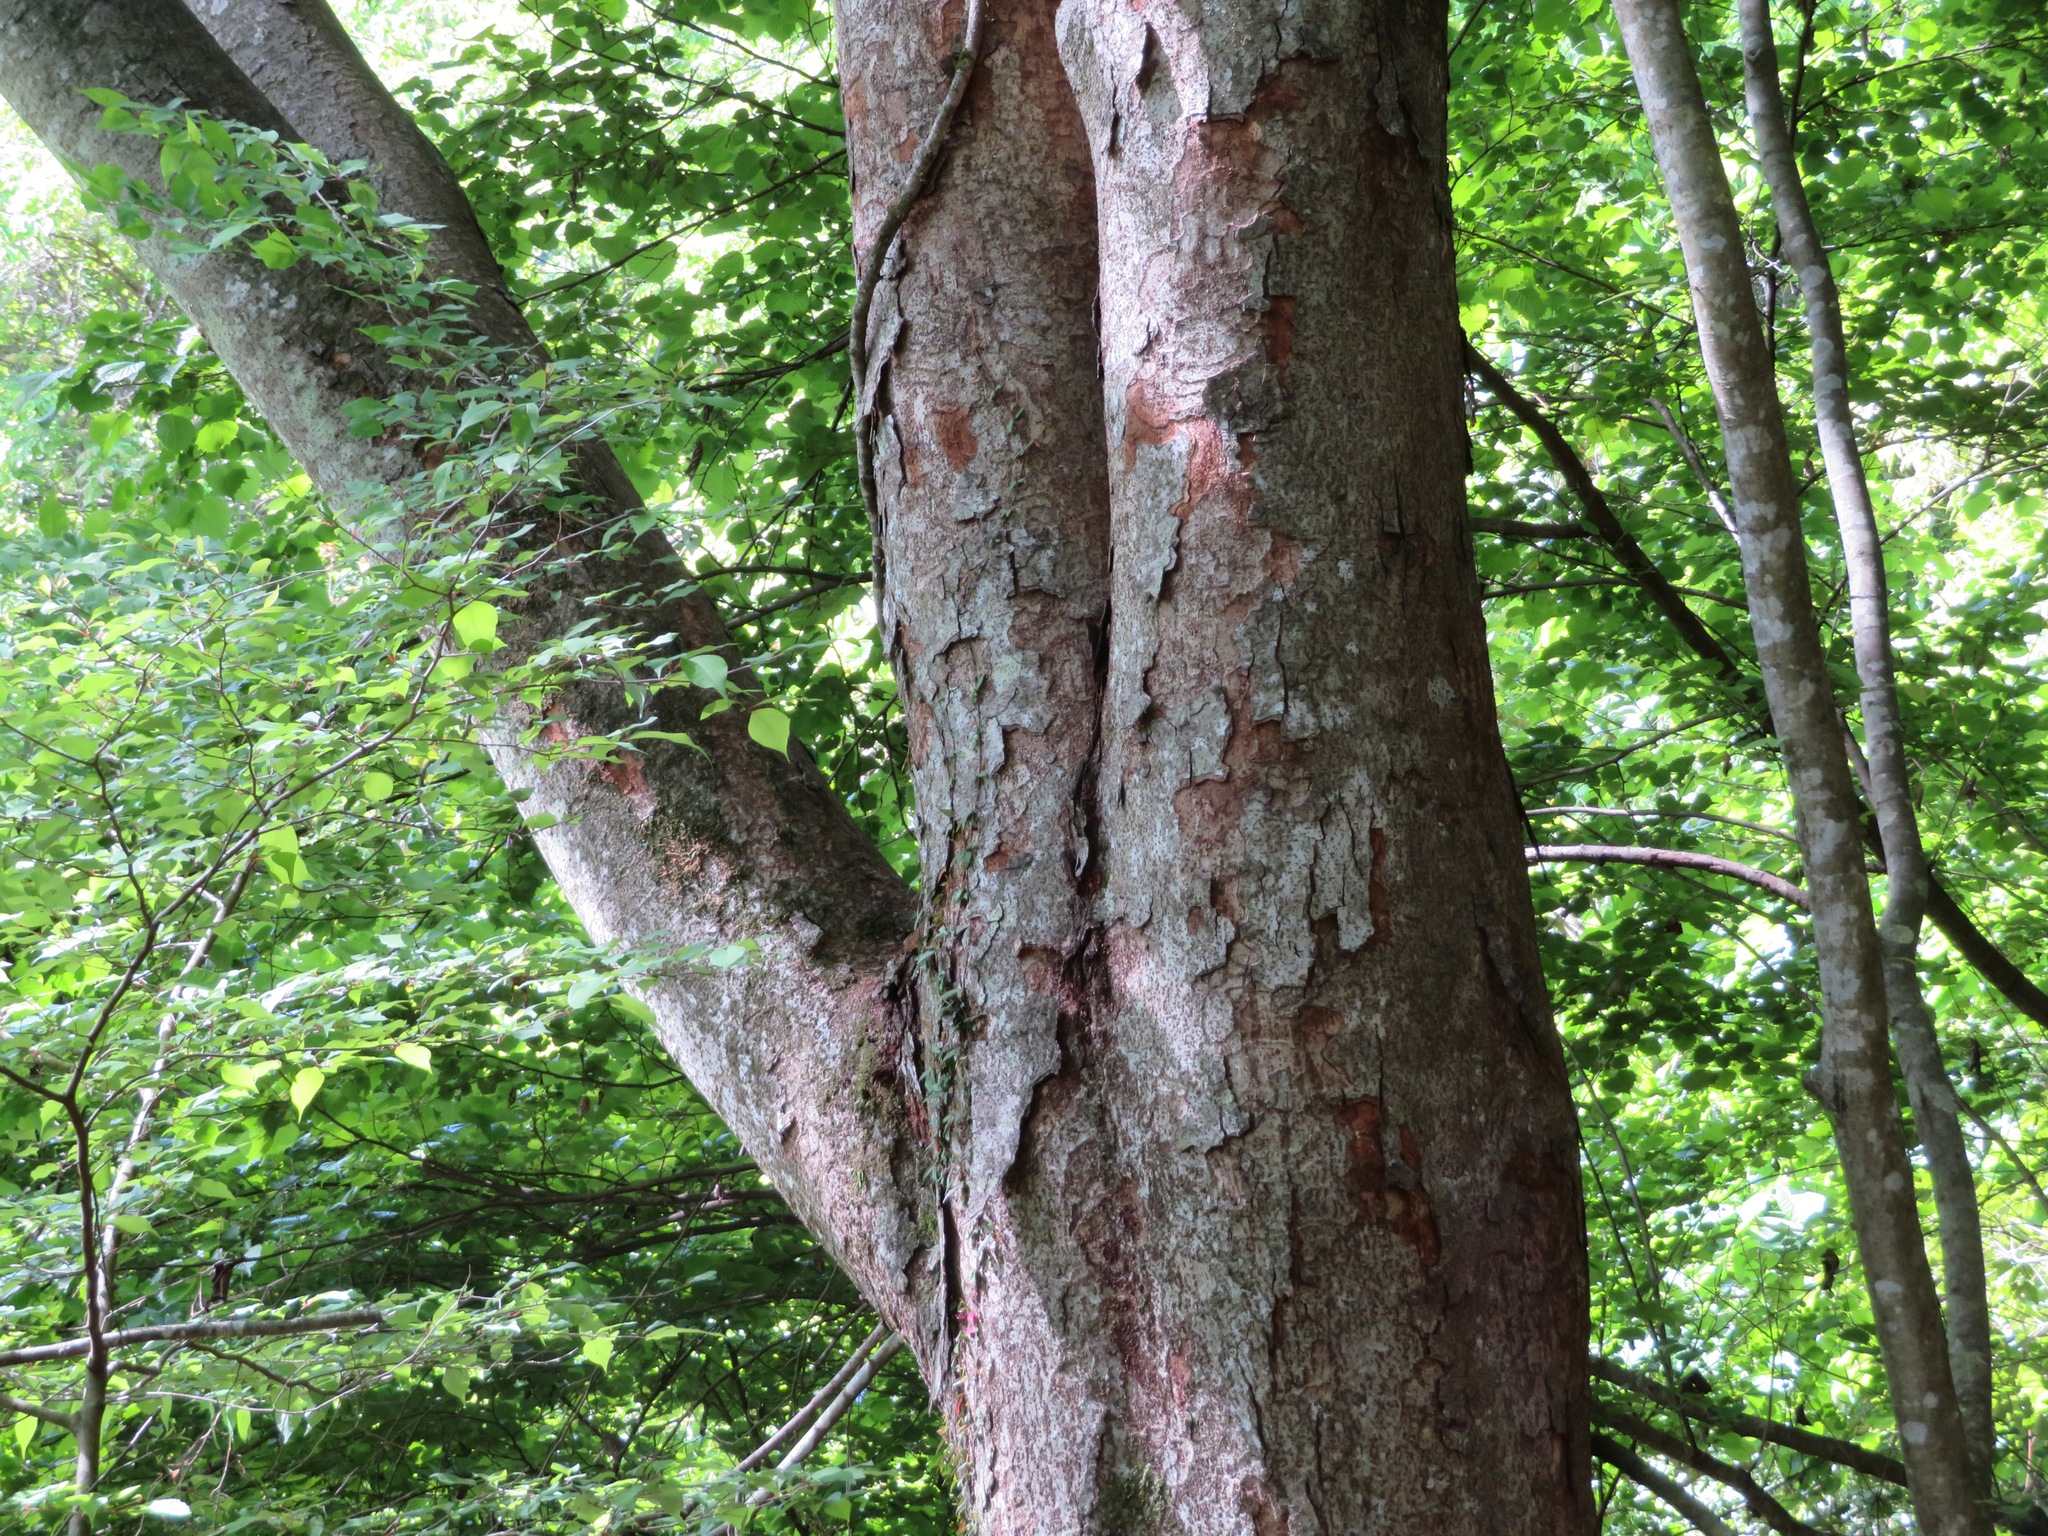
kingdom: Plantae
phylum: Tracheophyta
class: Magnoliopsida
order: Rosales
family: Ulmaceae
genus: Zelkova
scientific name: Zelkova serrata
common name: Japanese zelkova
